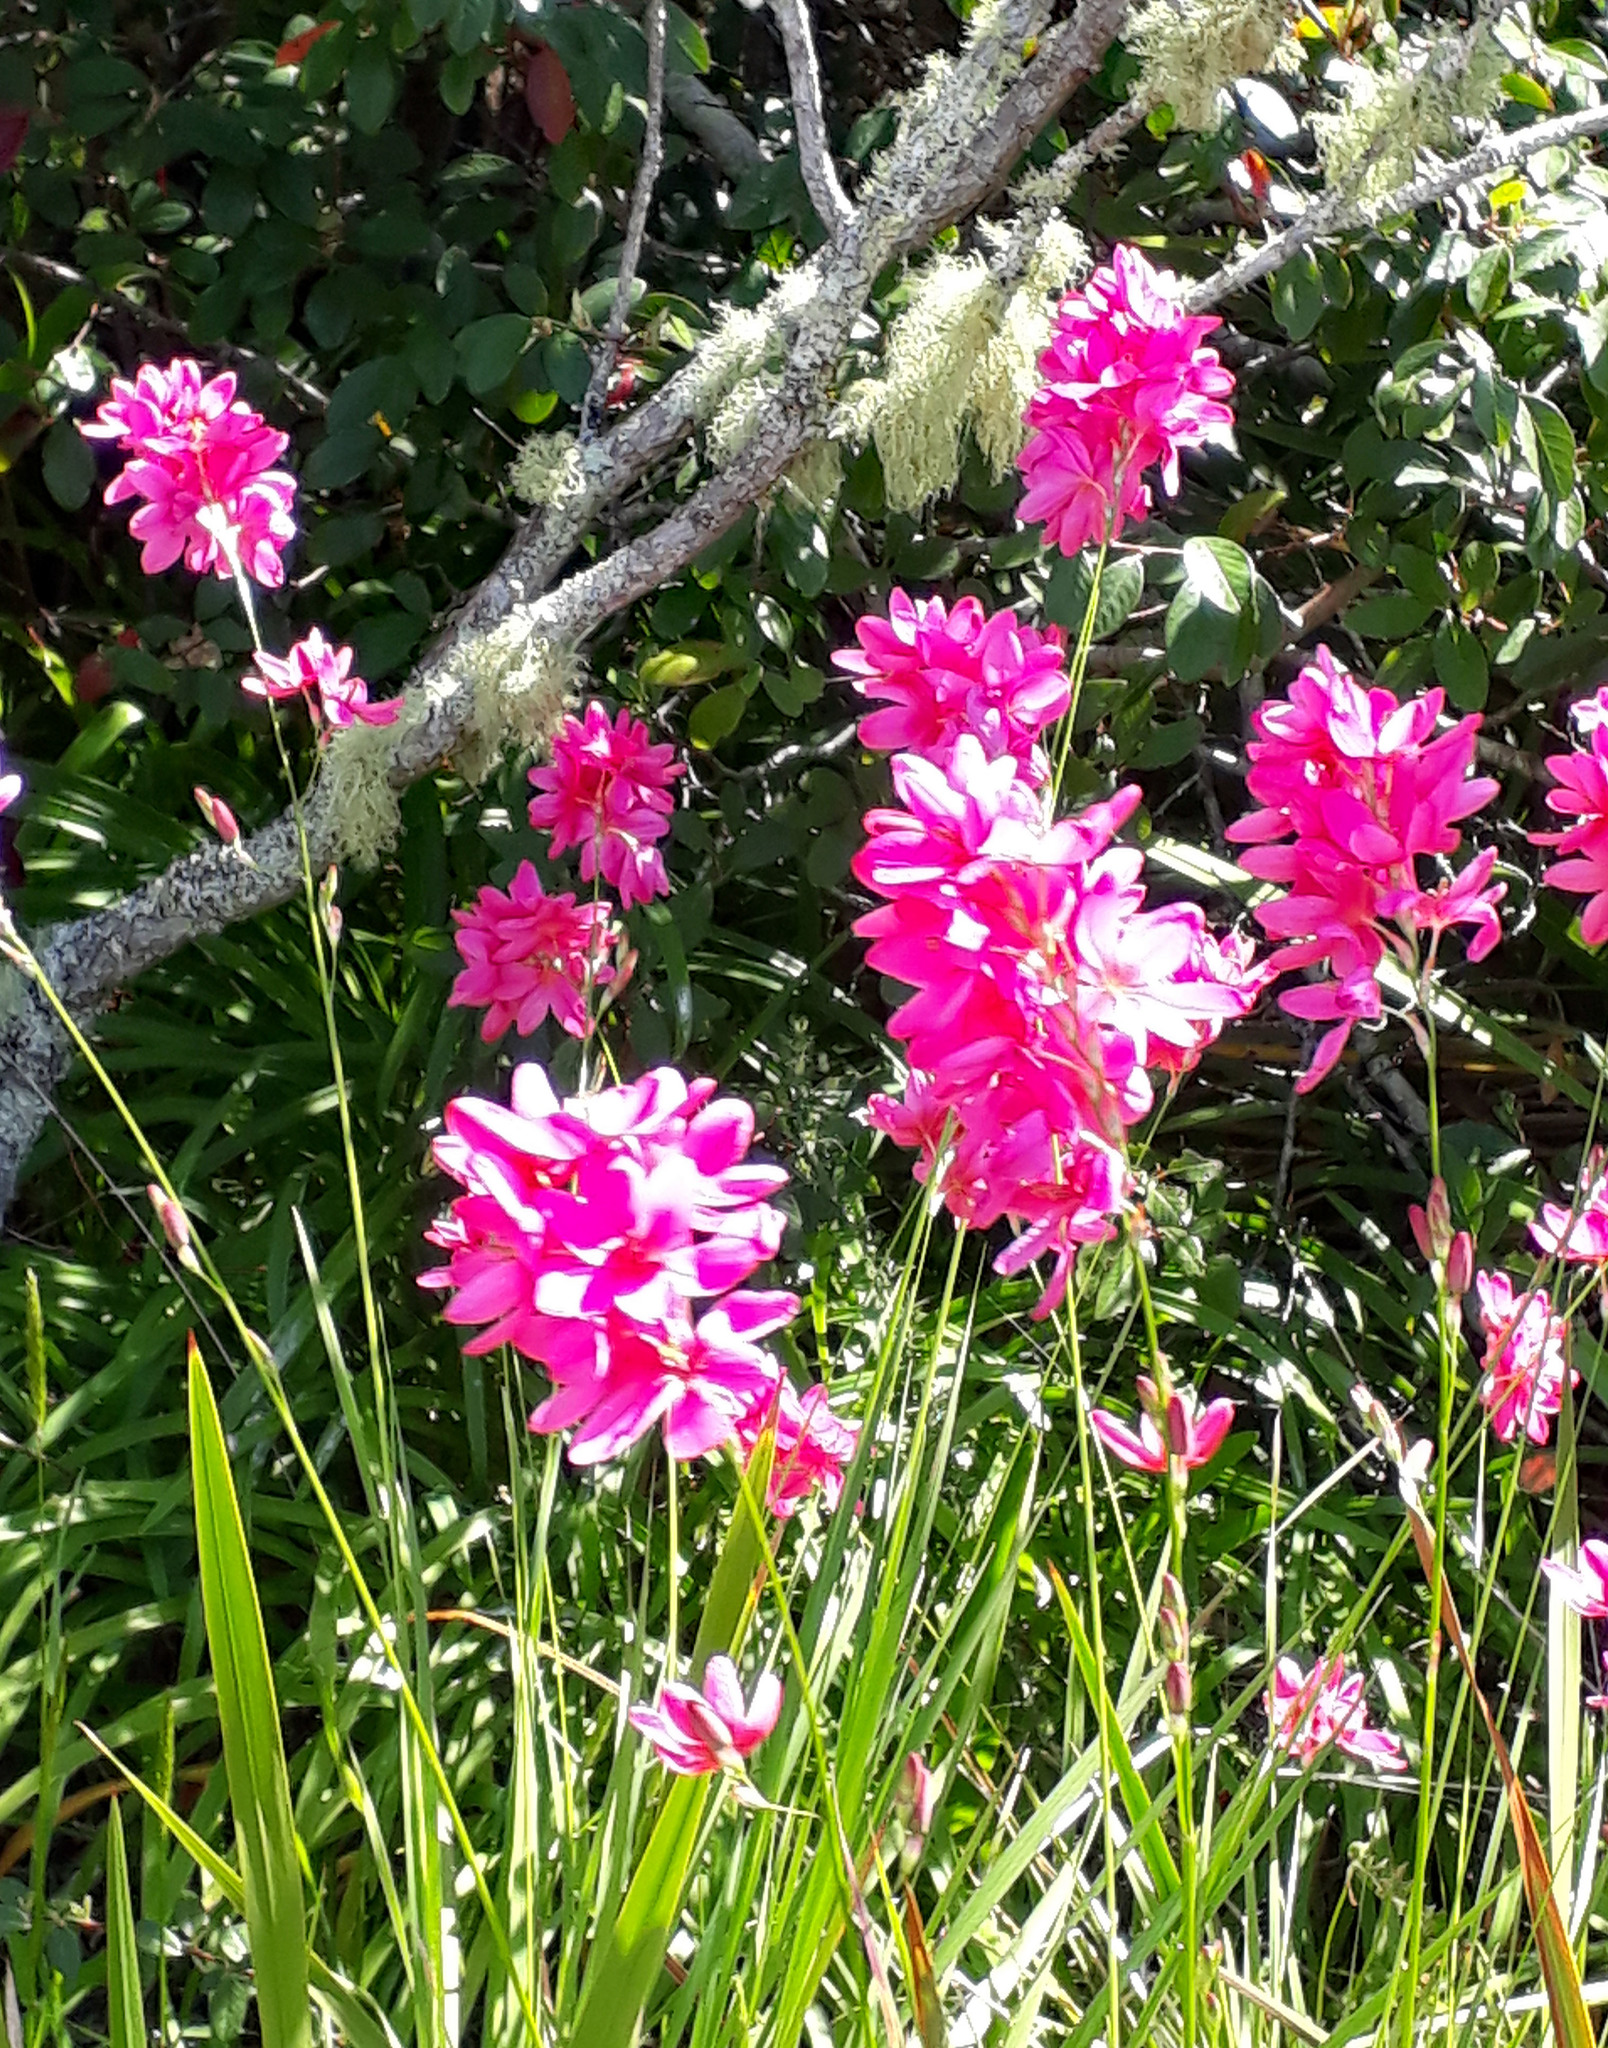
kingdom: Plantae
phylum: Tracheophyta
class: Liliopsida
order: Asparagales
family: Iridaceae
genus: Ixia
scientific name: Ixia maculata
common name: Spotted african cornlily
